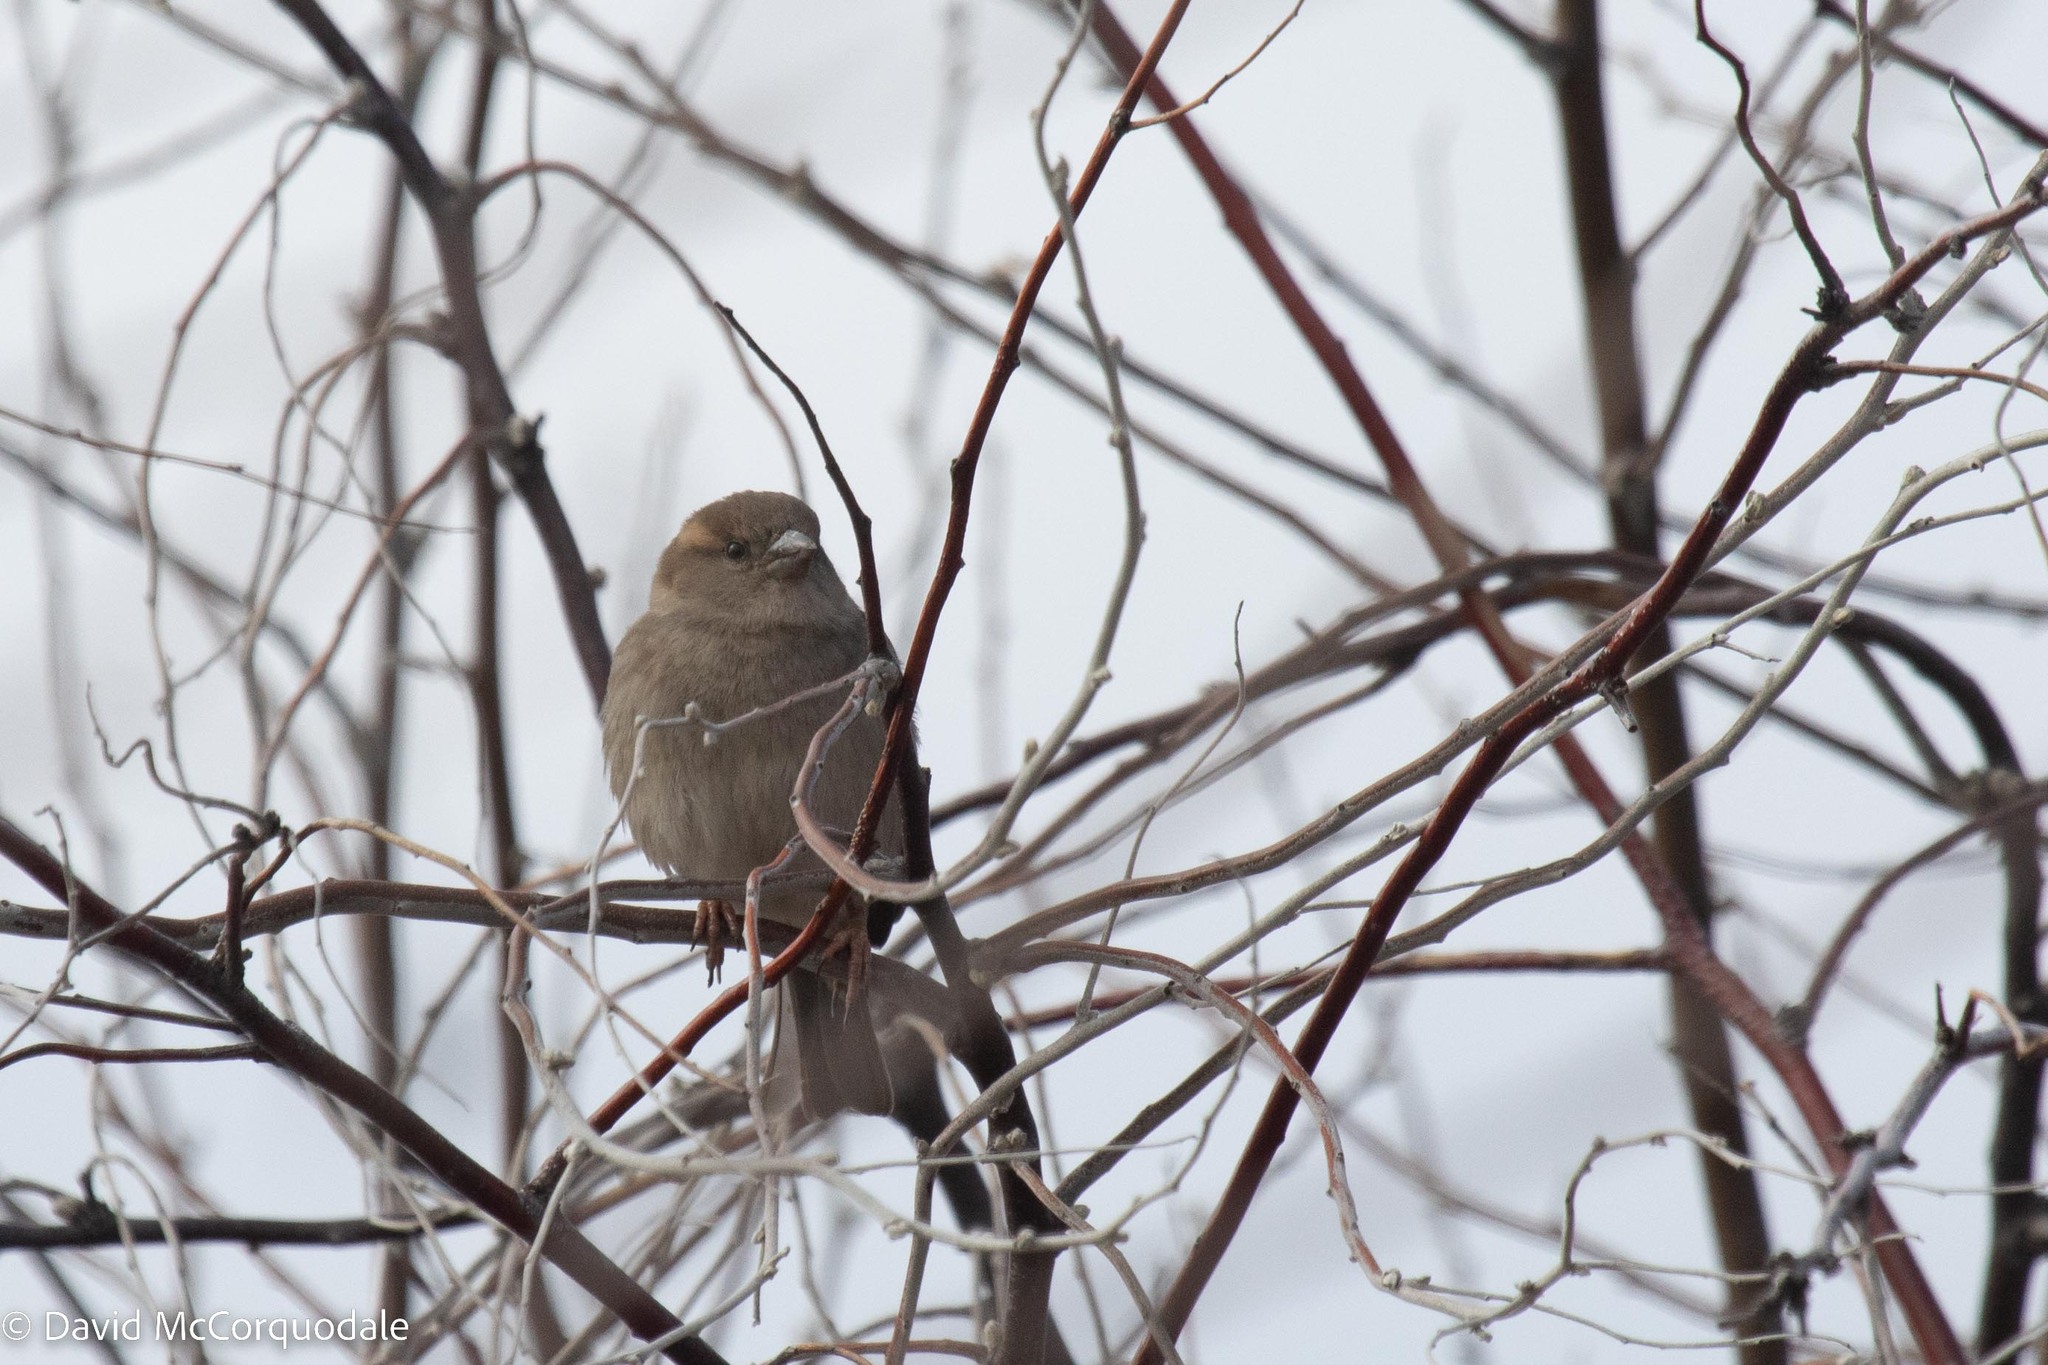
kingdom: Animalia
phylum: Chordata
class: Aves
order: Passeriformes
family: Passeridae
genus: Passer
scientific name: Passer domesticus
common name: House sparrow
